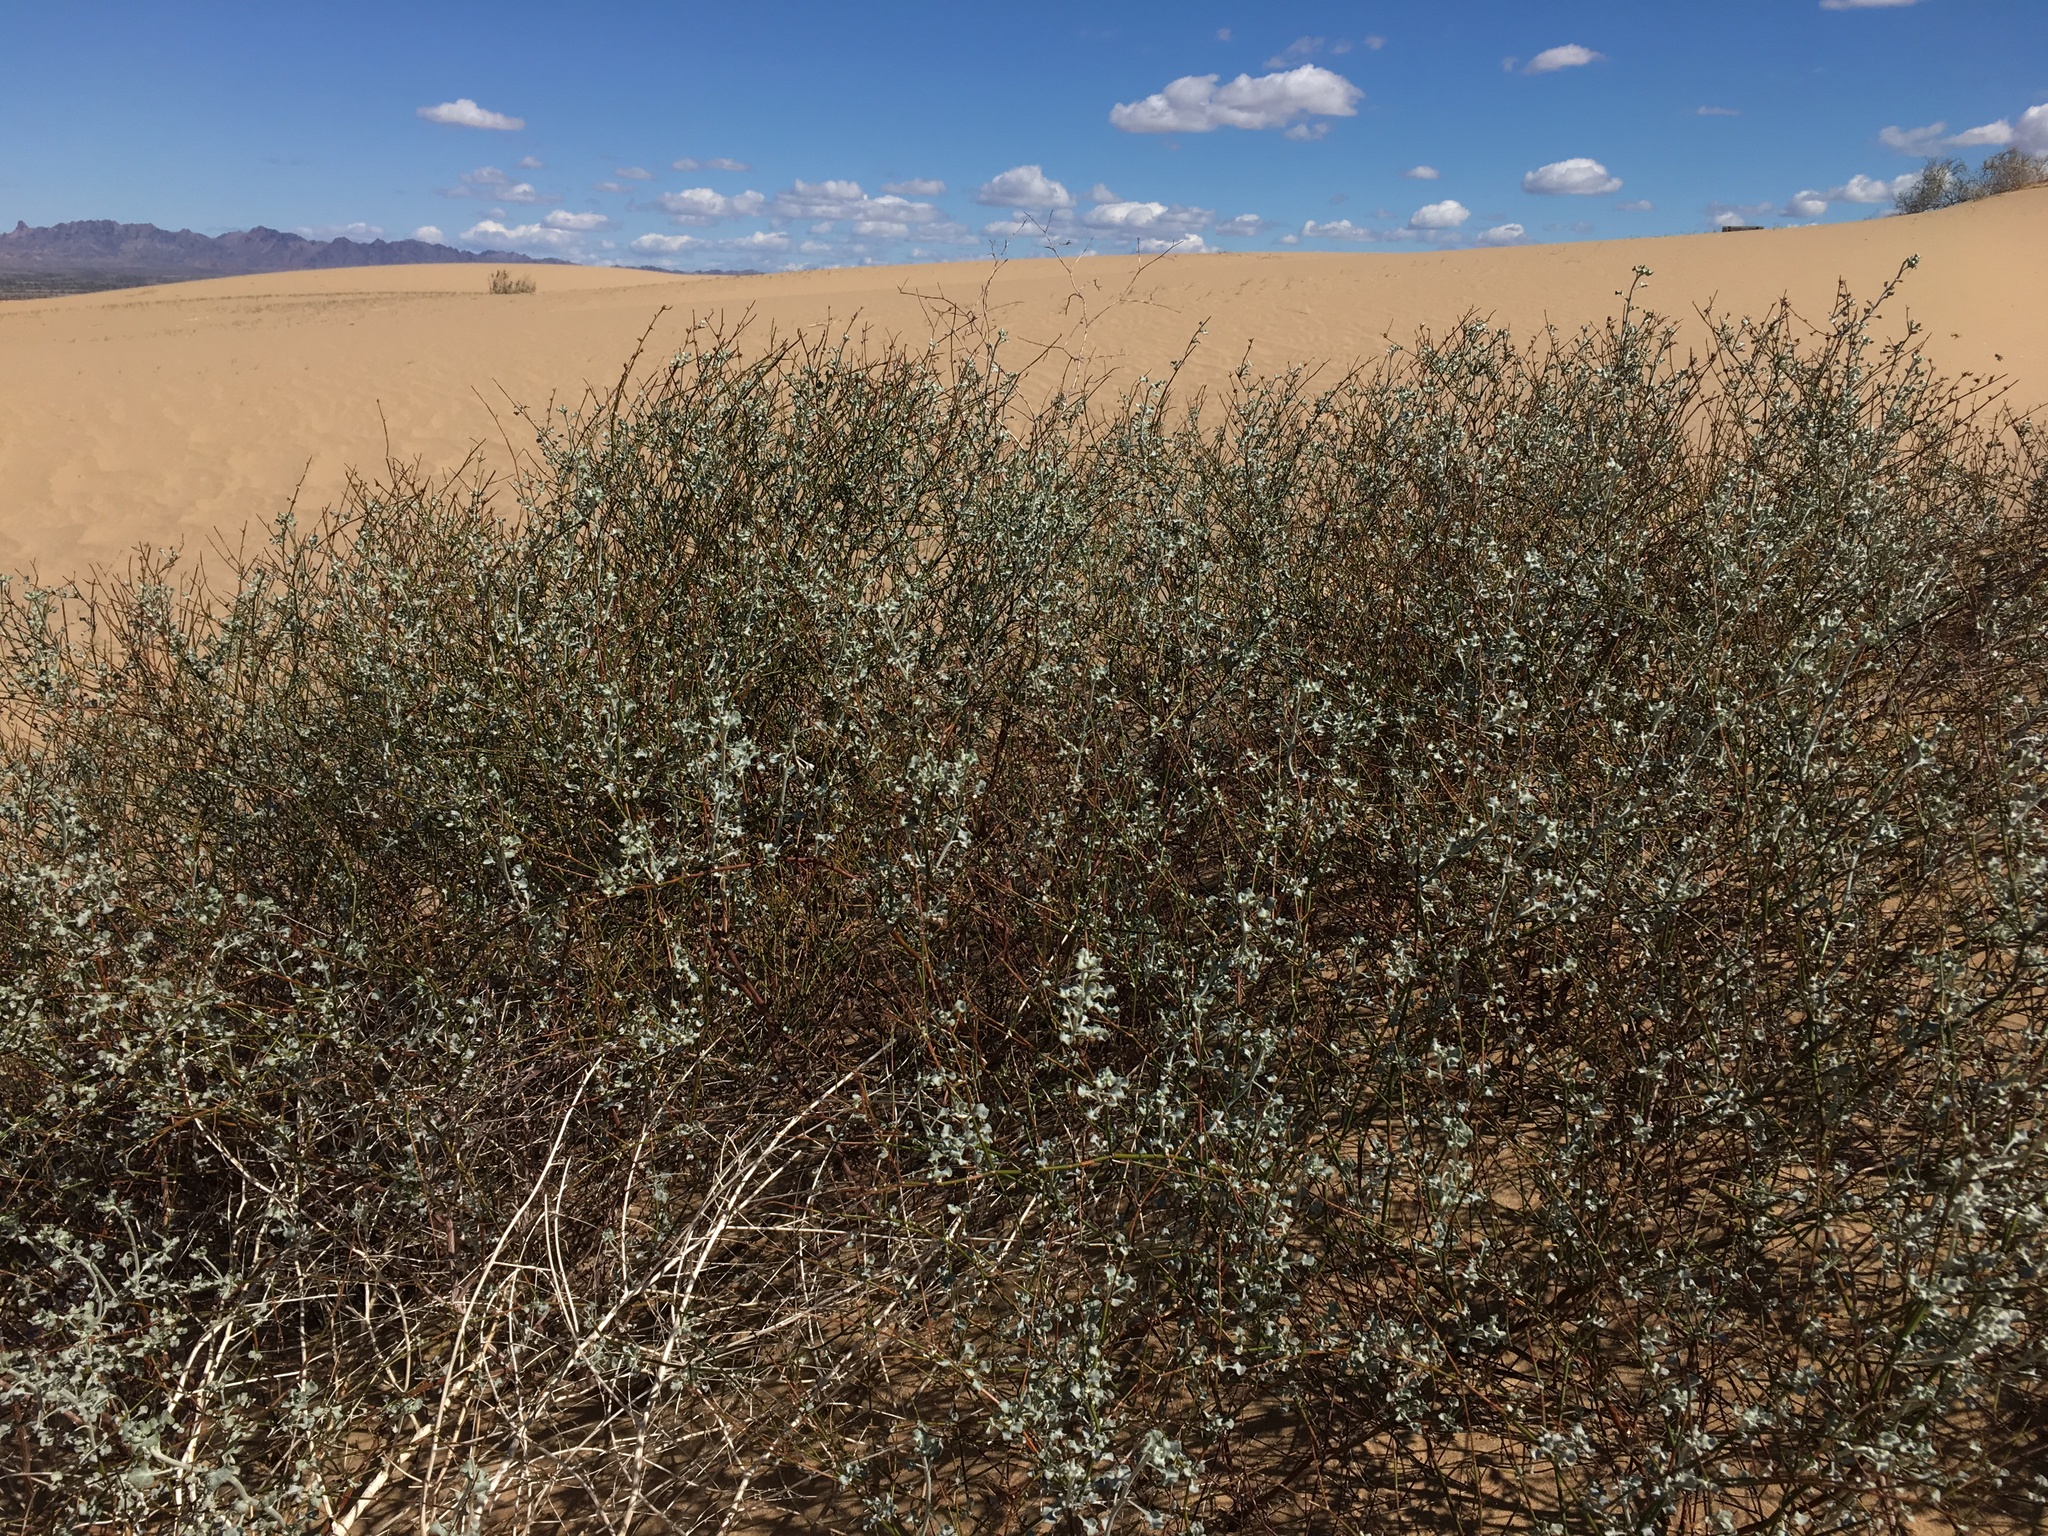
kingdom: Plantae
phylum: Tracheophyta
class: Magnoliopsida
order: Caryophyllales
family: Polygonaceae
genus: Eriogonum
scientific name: Eriogonum deserticola
